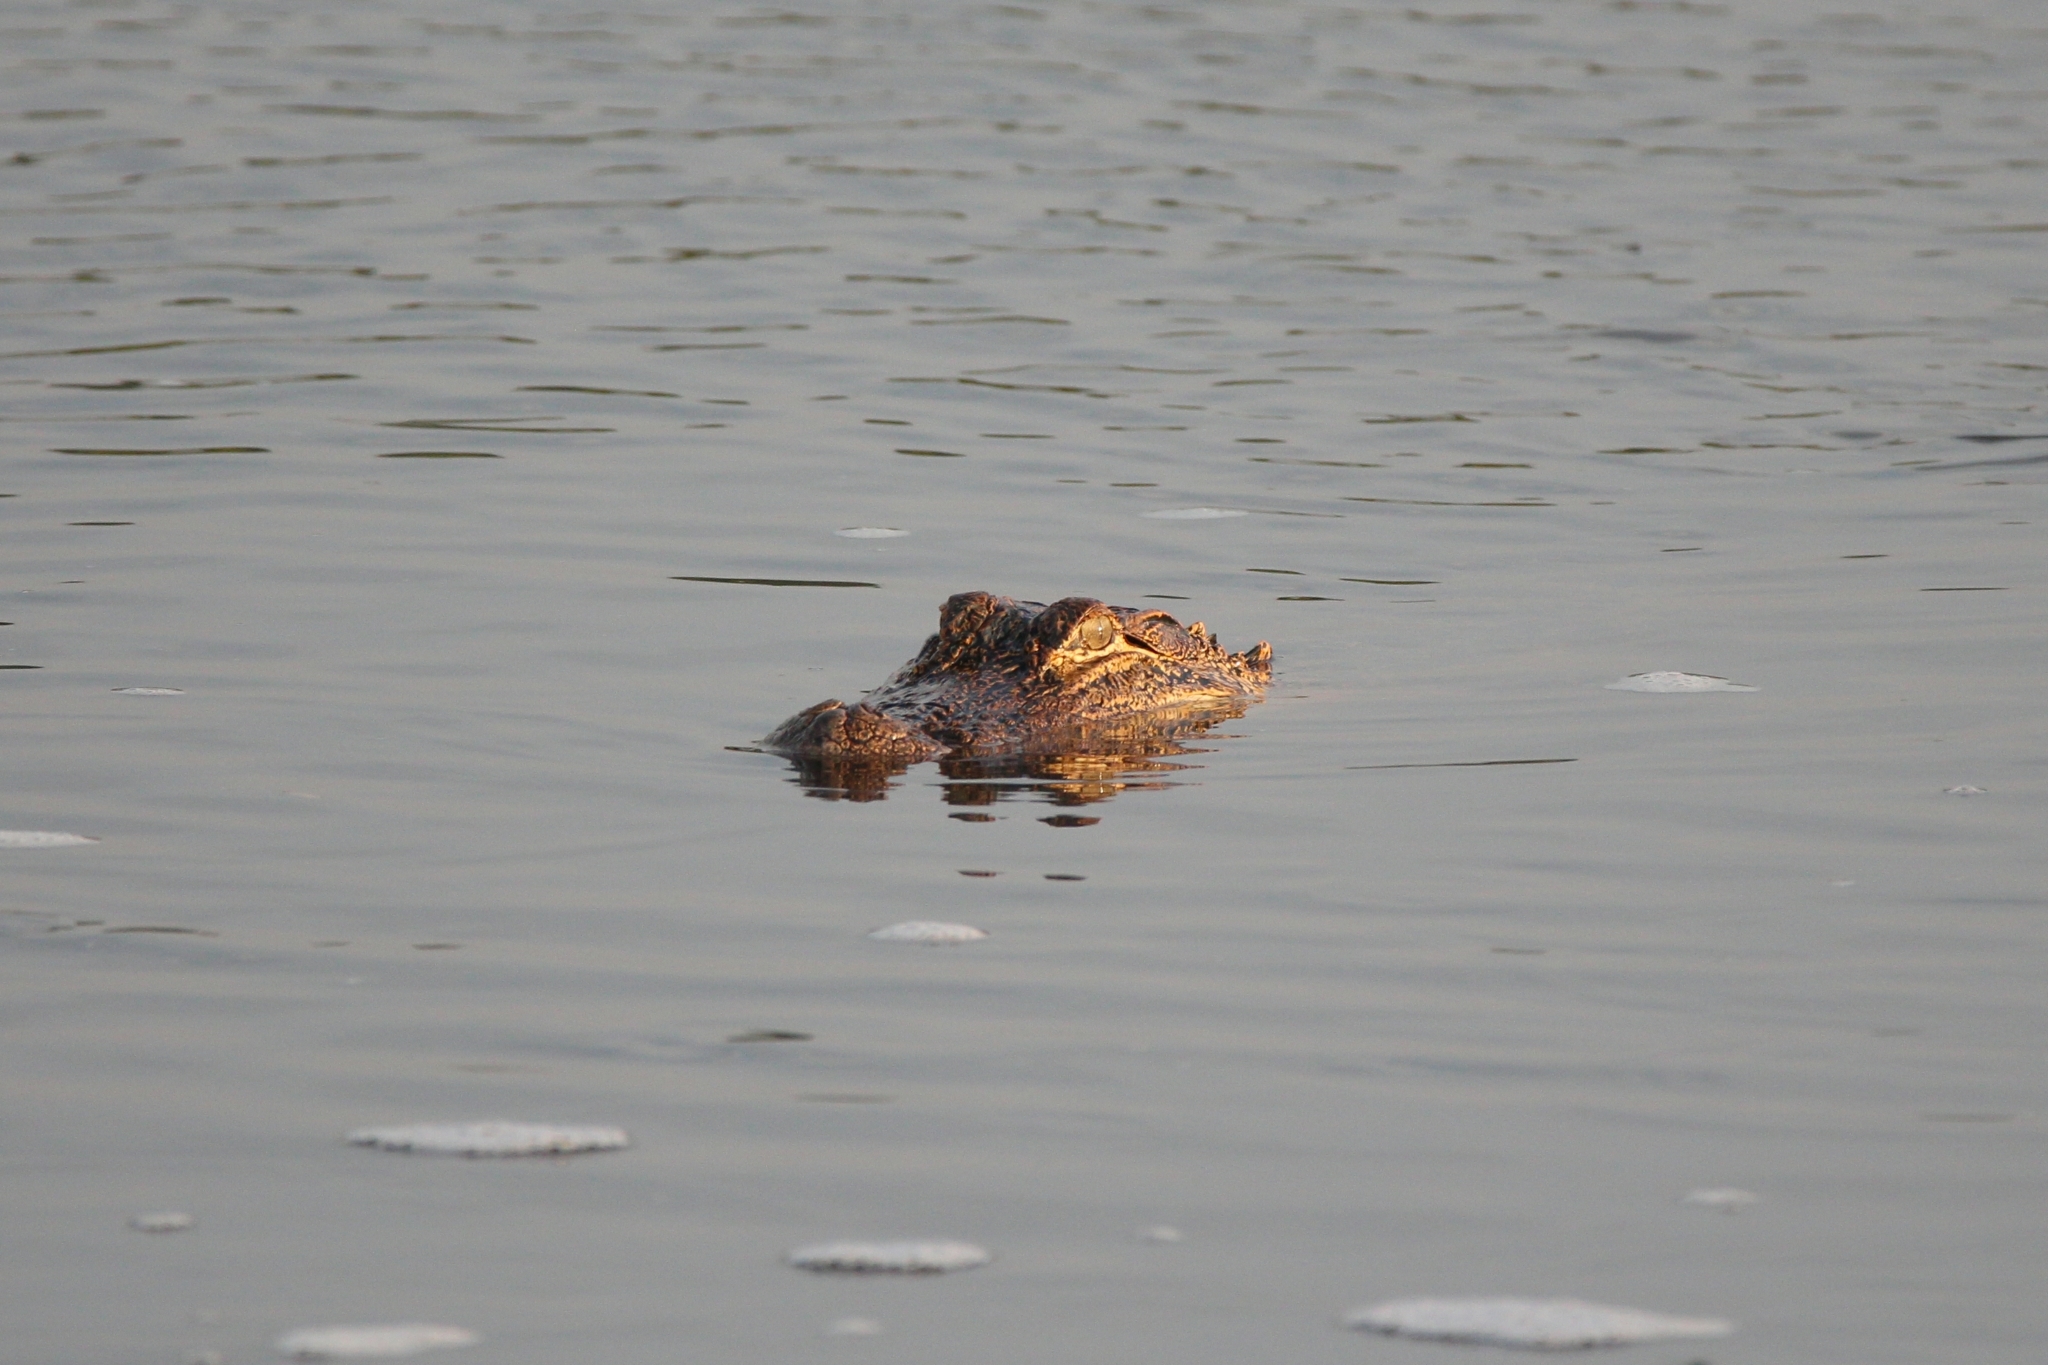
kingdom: Animalia
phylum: Chordata
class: Crocodylia
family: Alligatoridae
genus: Alligator
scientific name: Alligator mississippiensis
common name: American alligator
